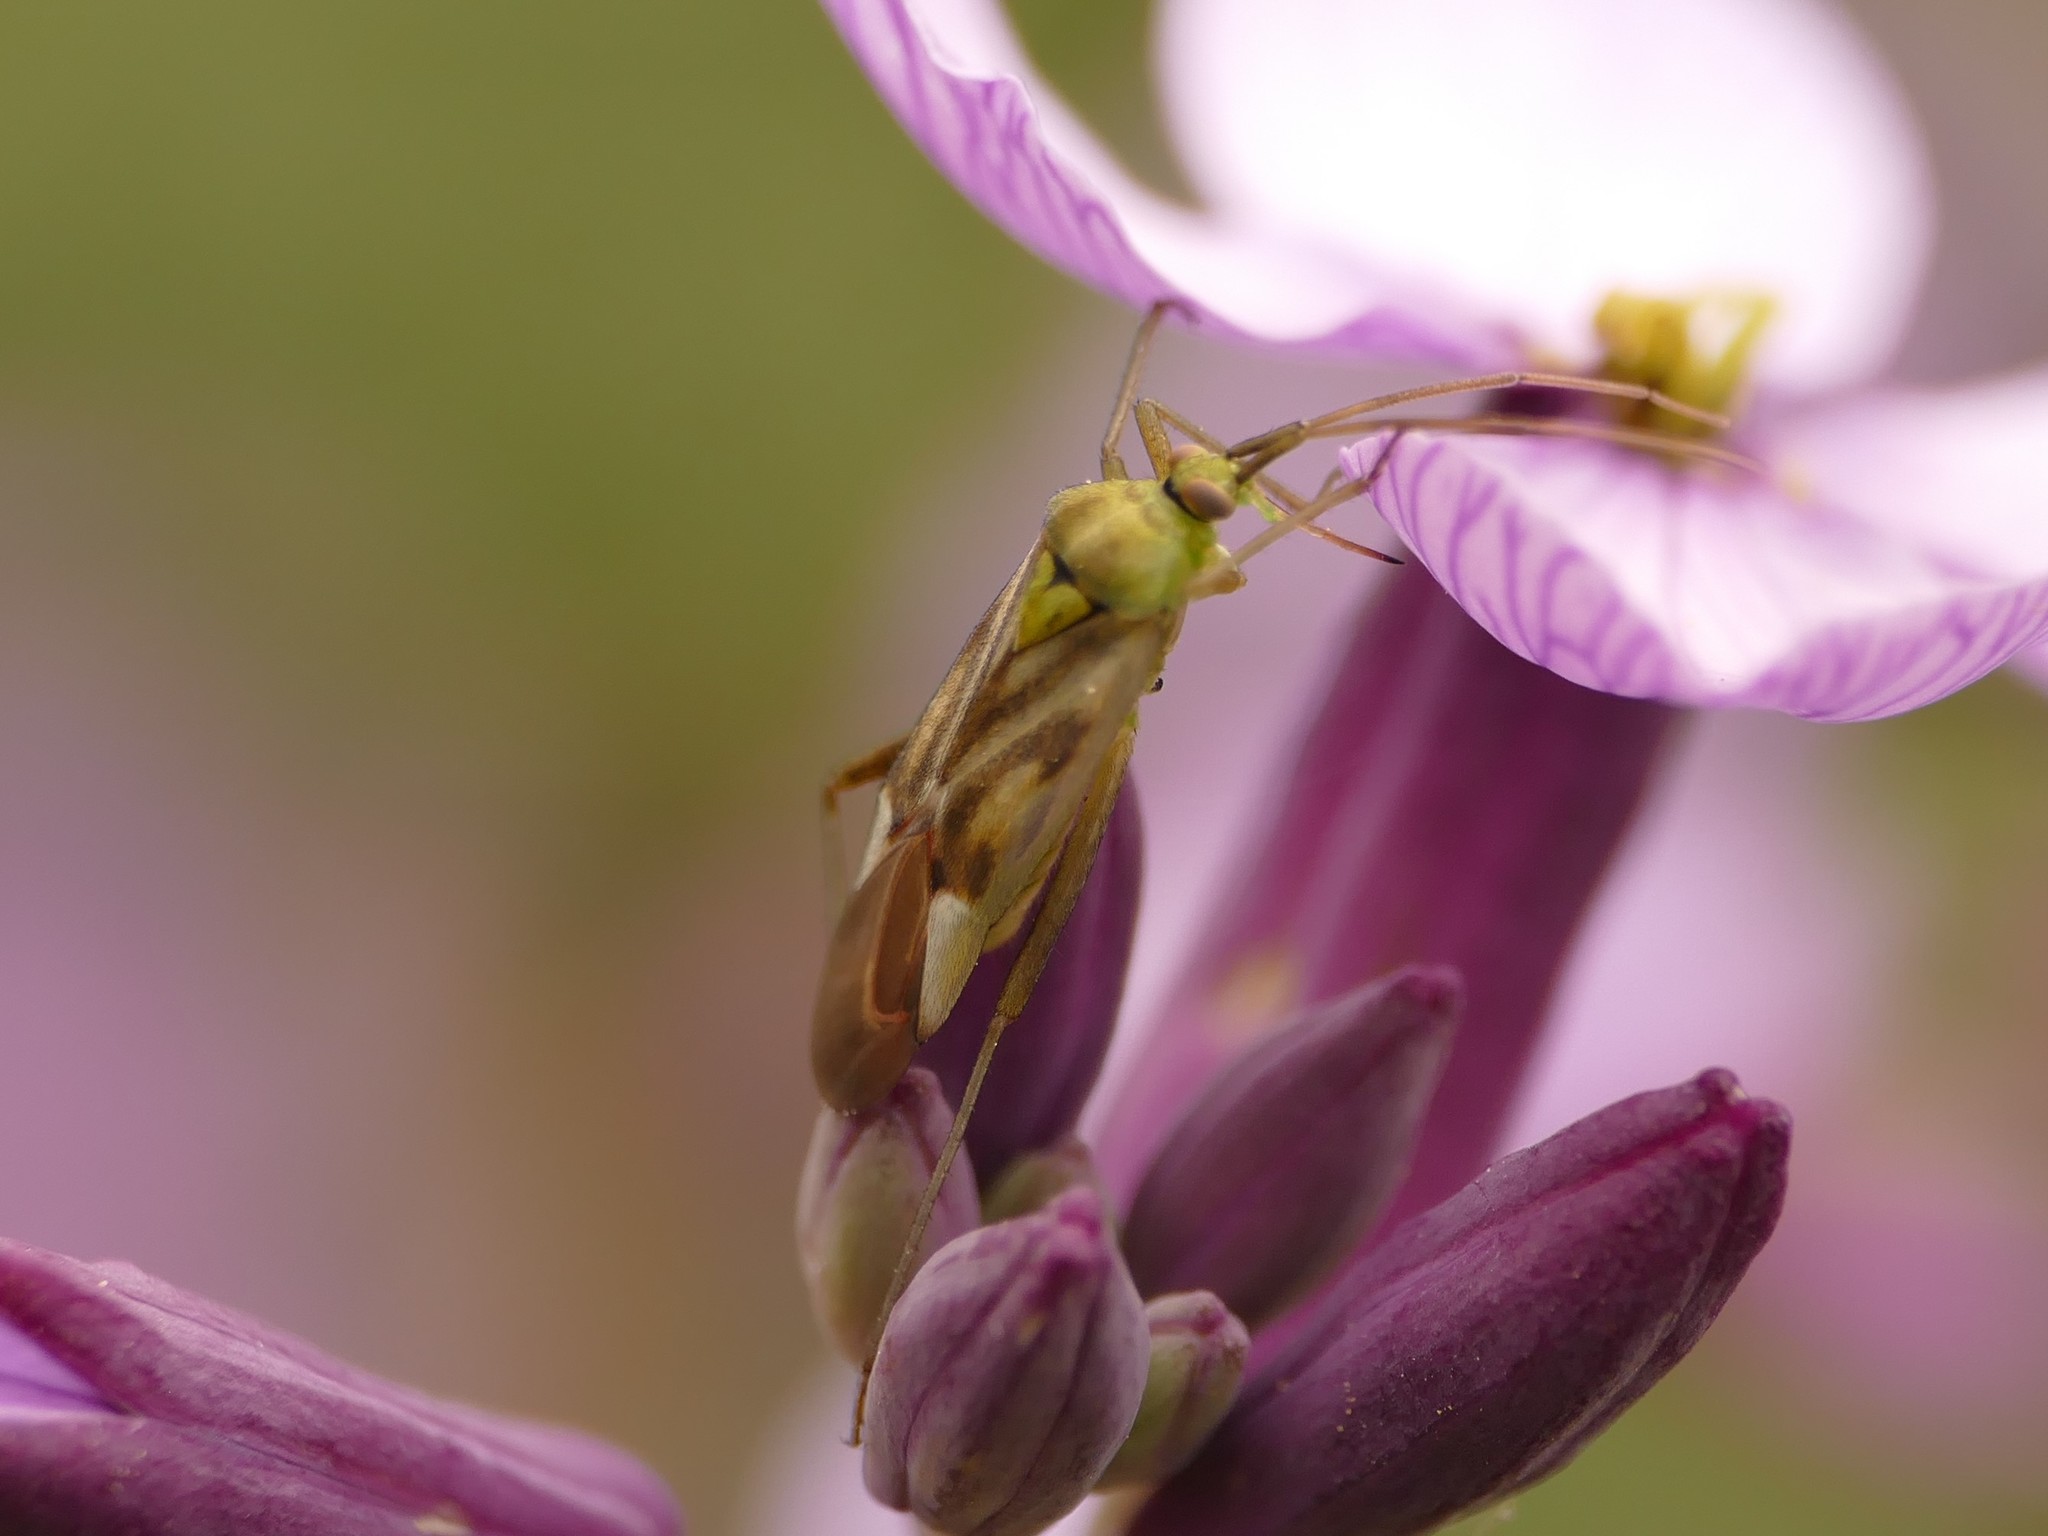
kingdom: Animalia
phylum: Arthropoda
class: Insecta
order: Hemiptera
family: Miridae
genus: Reuterista
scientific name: Reuterista instabilis
